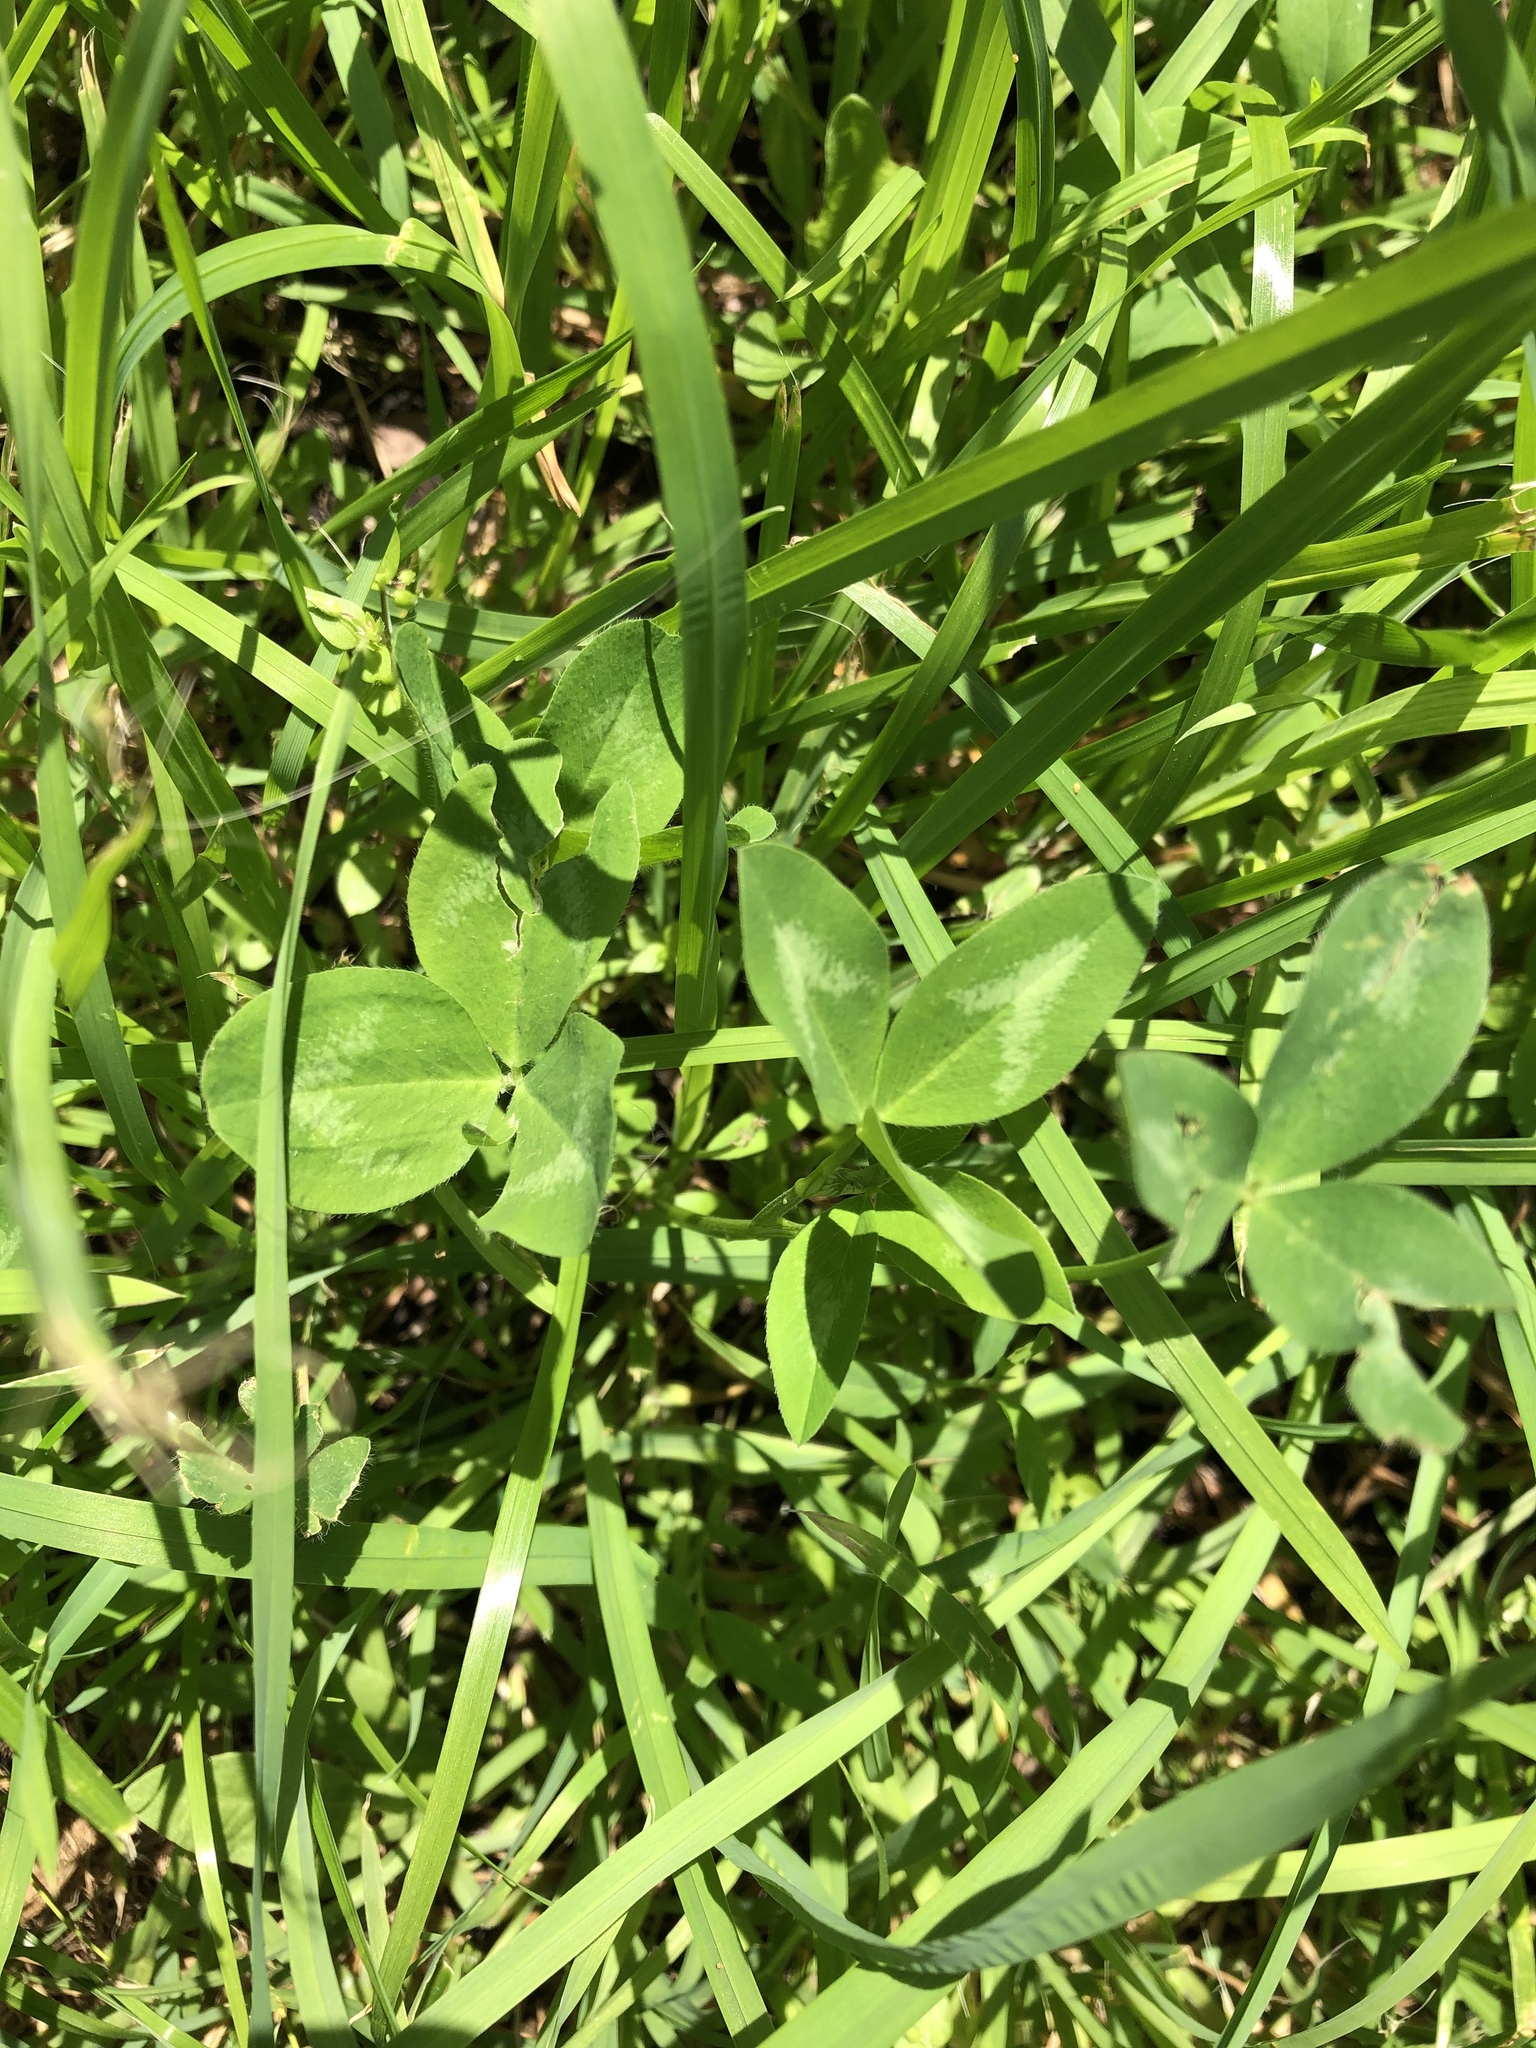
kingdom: Plantae
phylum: Tracheophyta
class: Magnoliopsida
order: Fabales
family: Fabaceae
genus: Trifolium
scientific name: Trifolium pratense
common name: Red clover
